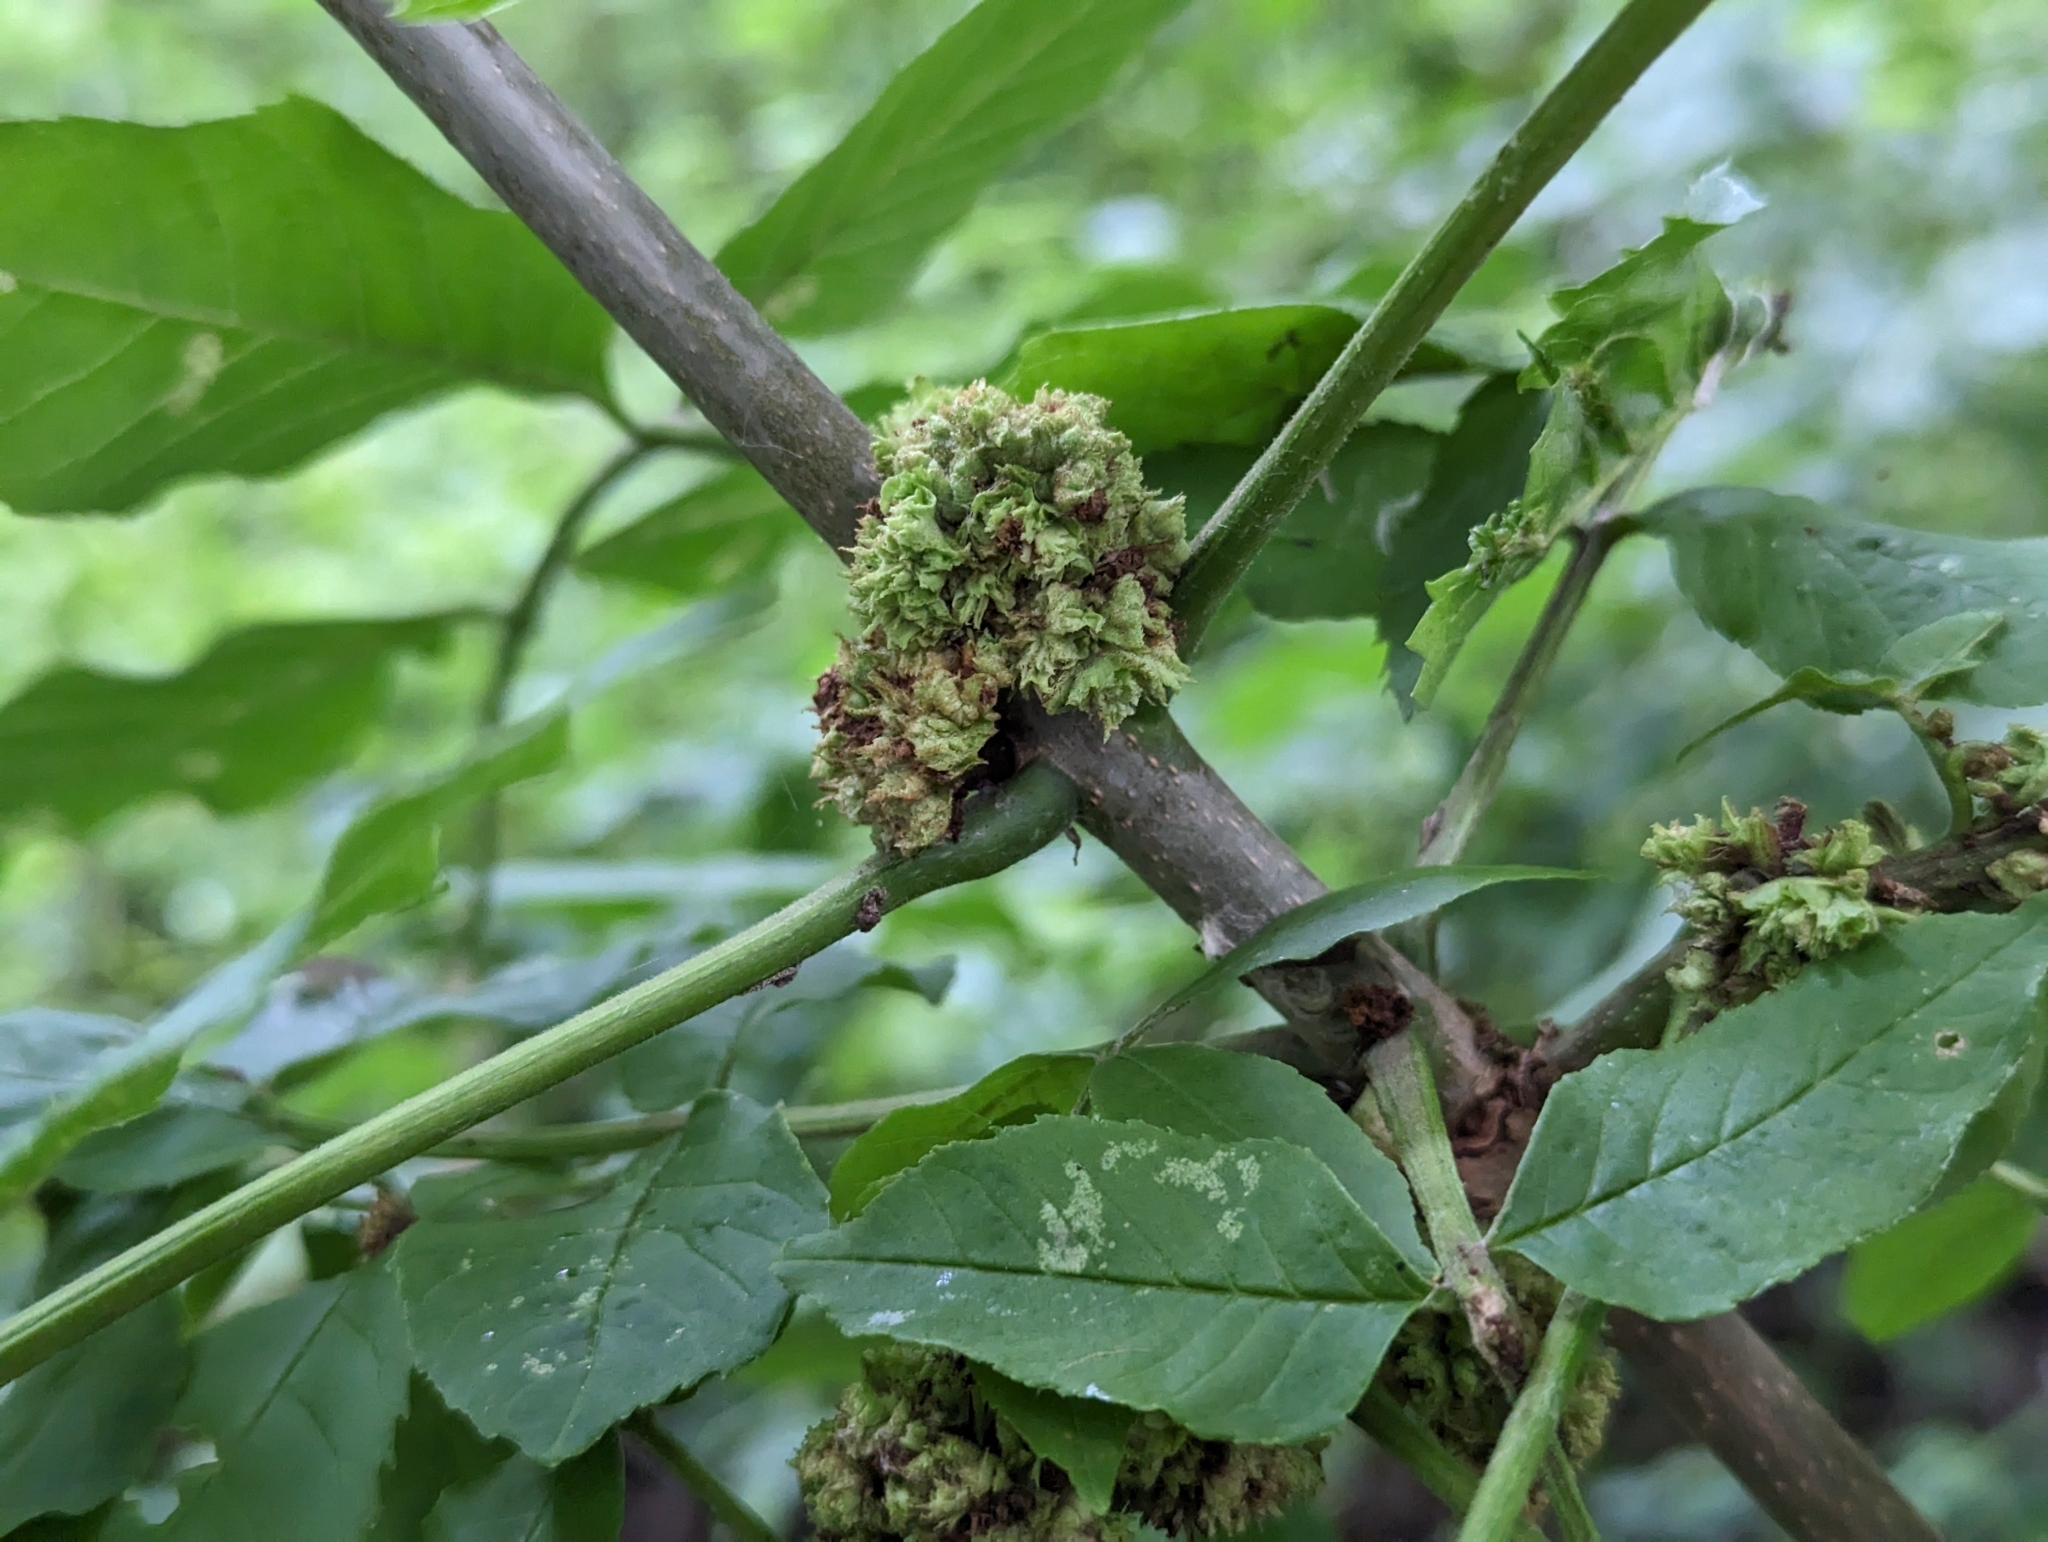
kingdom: Animalia
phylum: Arthropoda
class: Arachnida
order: Trombidiformes
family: Eriophyidae
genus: Aceria
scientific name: Aceria fraxiniflora
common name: Ash flower gall mite
